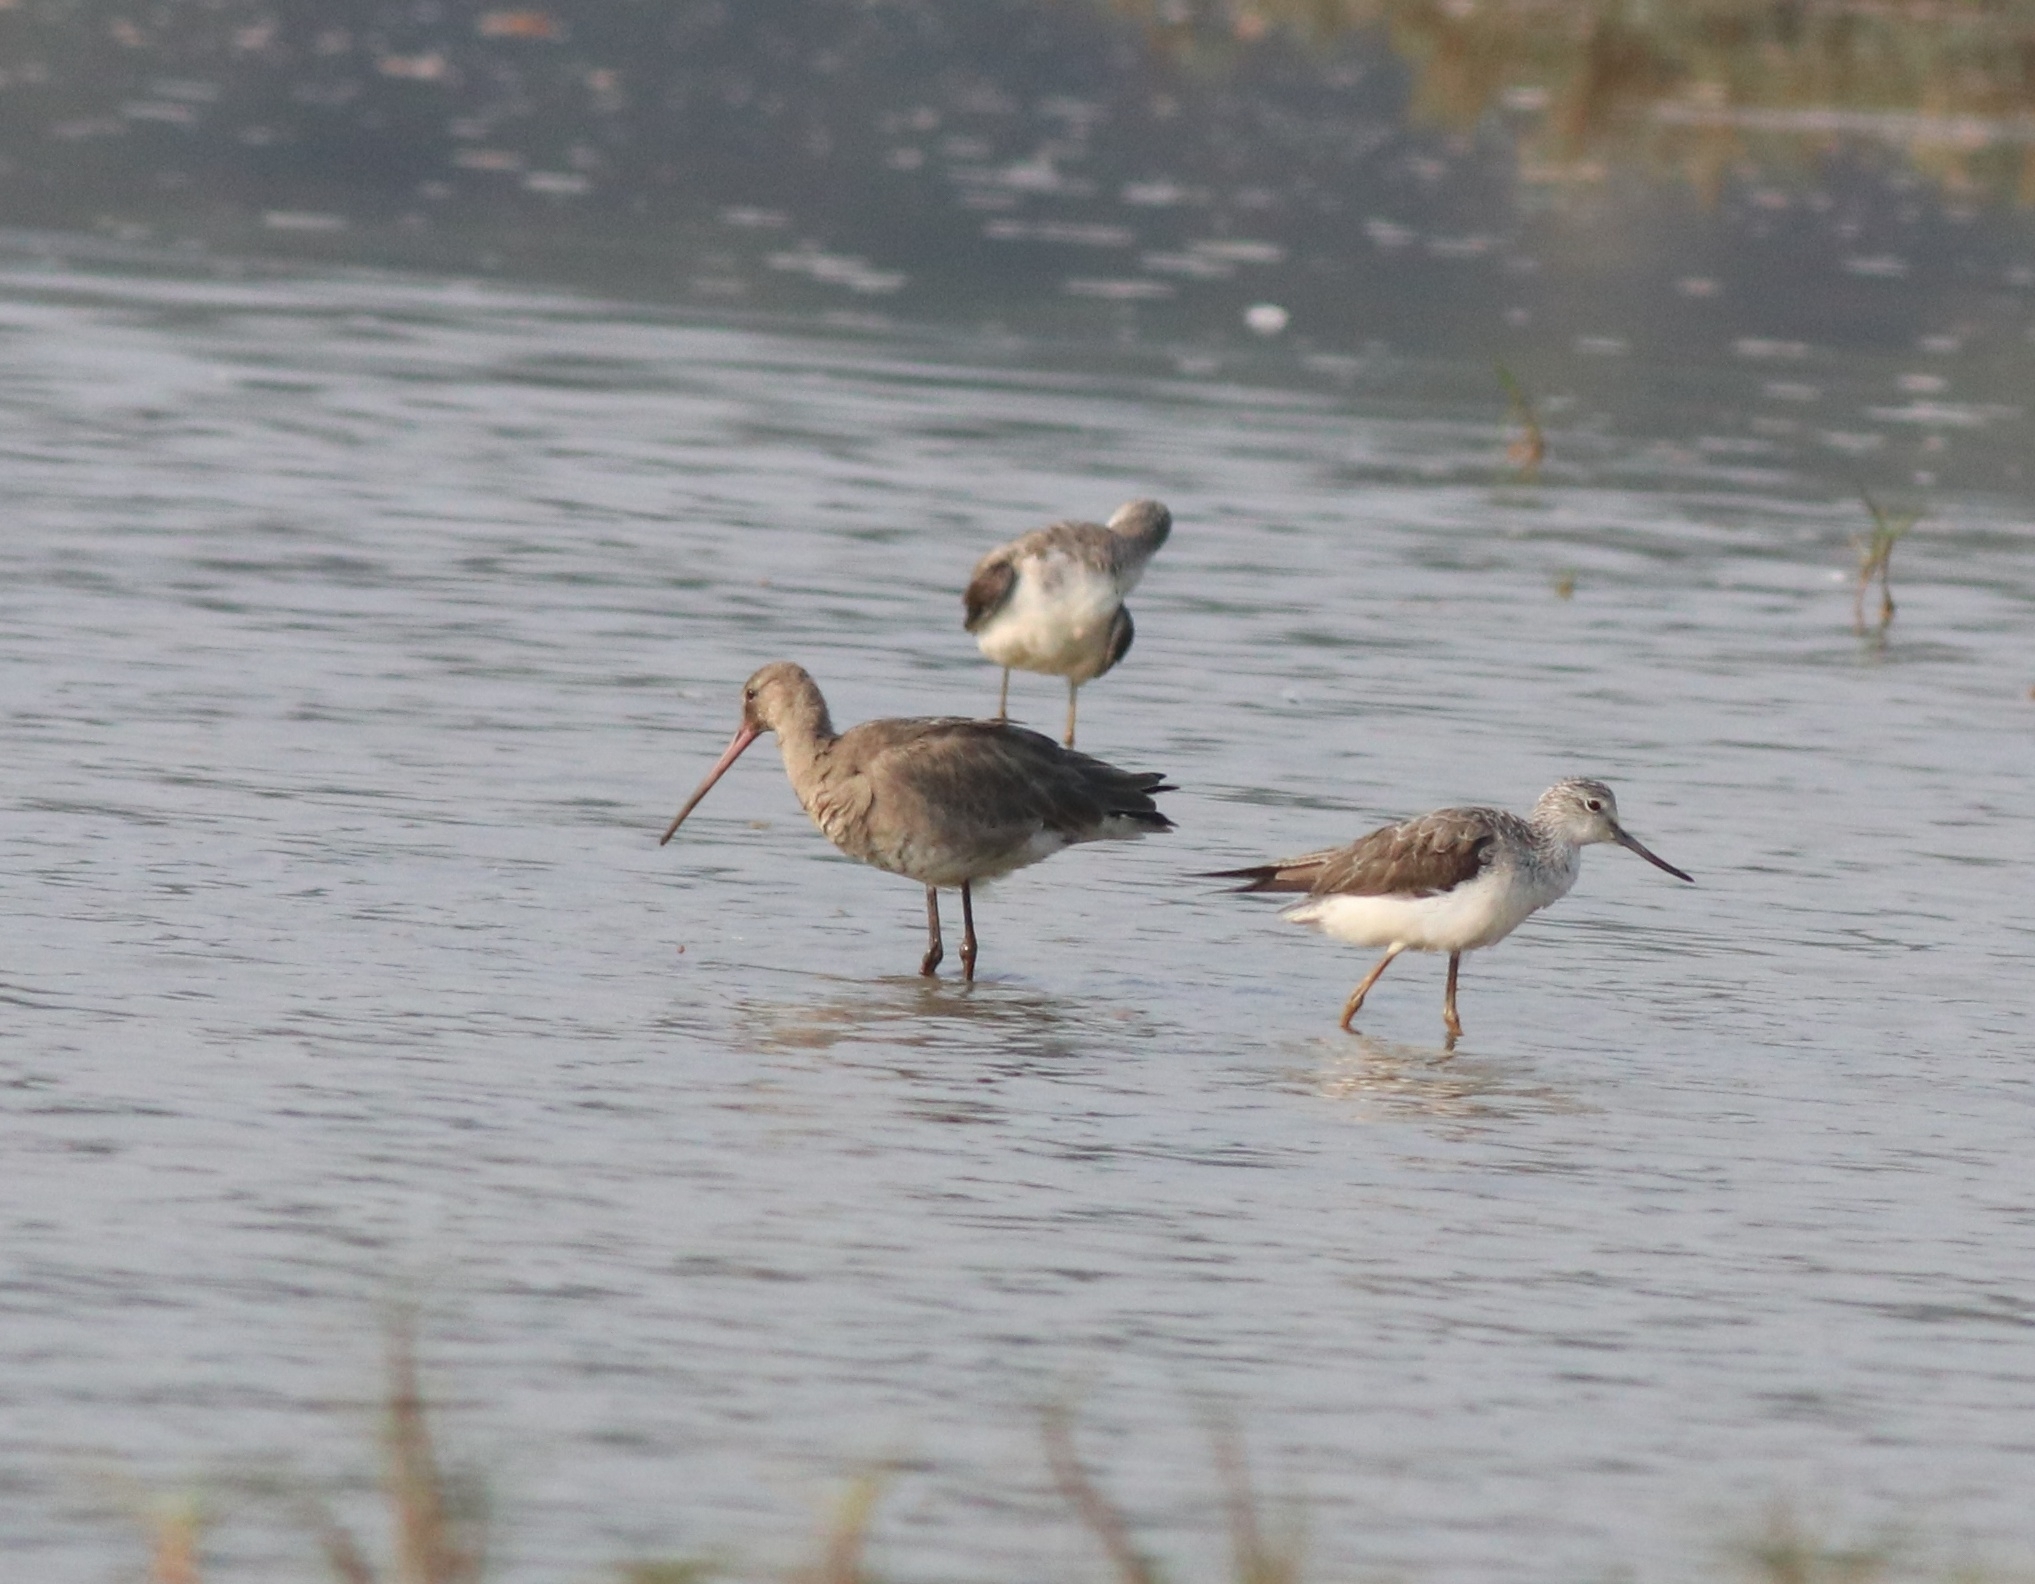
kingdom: Animalia
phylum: Chordata
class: Aves
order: Charadriiformes
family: Scolopacidae
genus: Tringa
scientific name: Tringa nebularia
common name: Common greenshank
